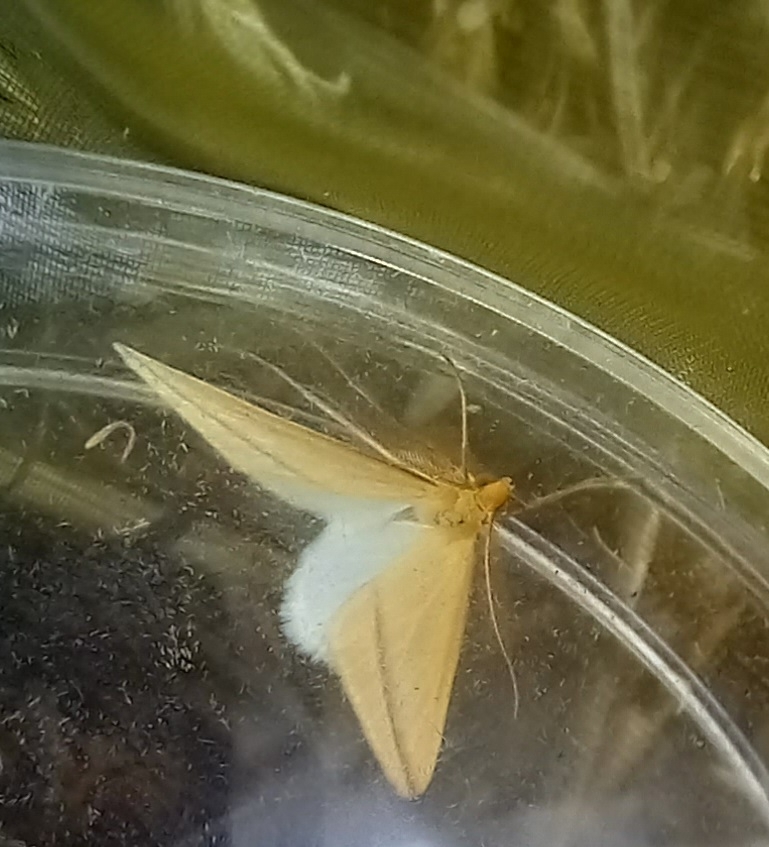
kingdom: Animalia
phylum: Arthropoda
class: Insecta
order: Lepidoptera
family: Geometridae
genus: Rhodometra
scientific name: Rhodometra sacraria
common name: Vestal
